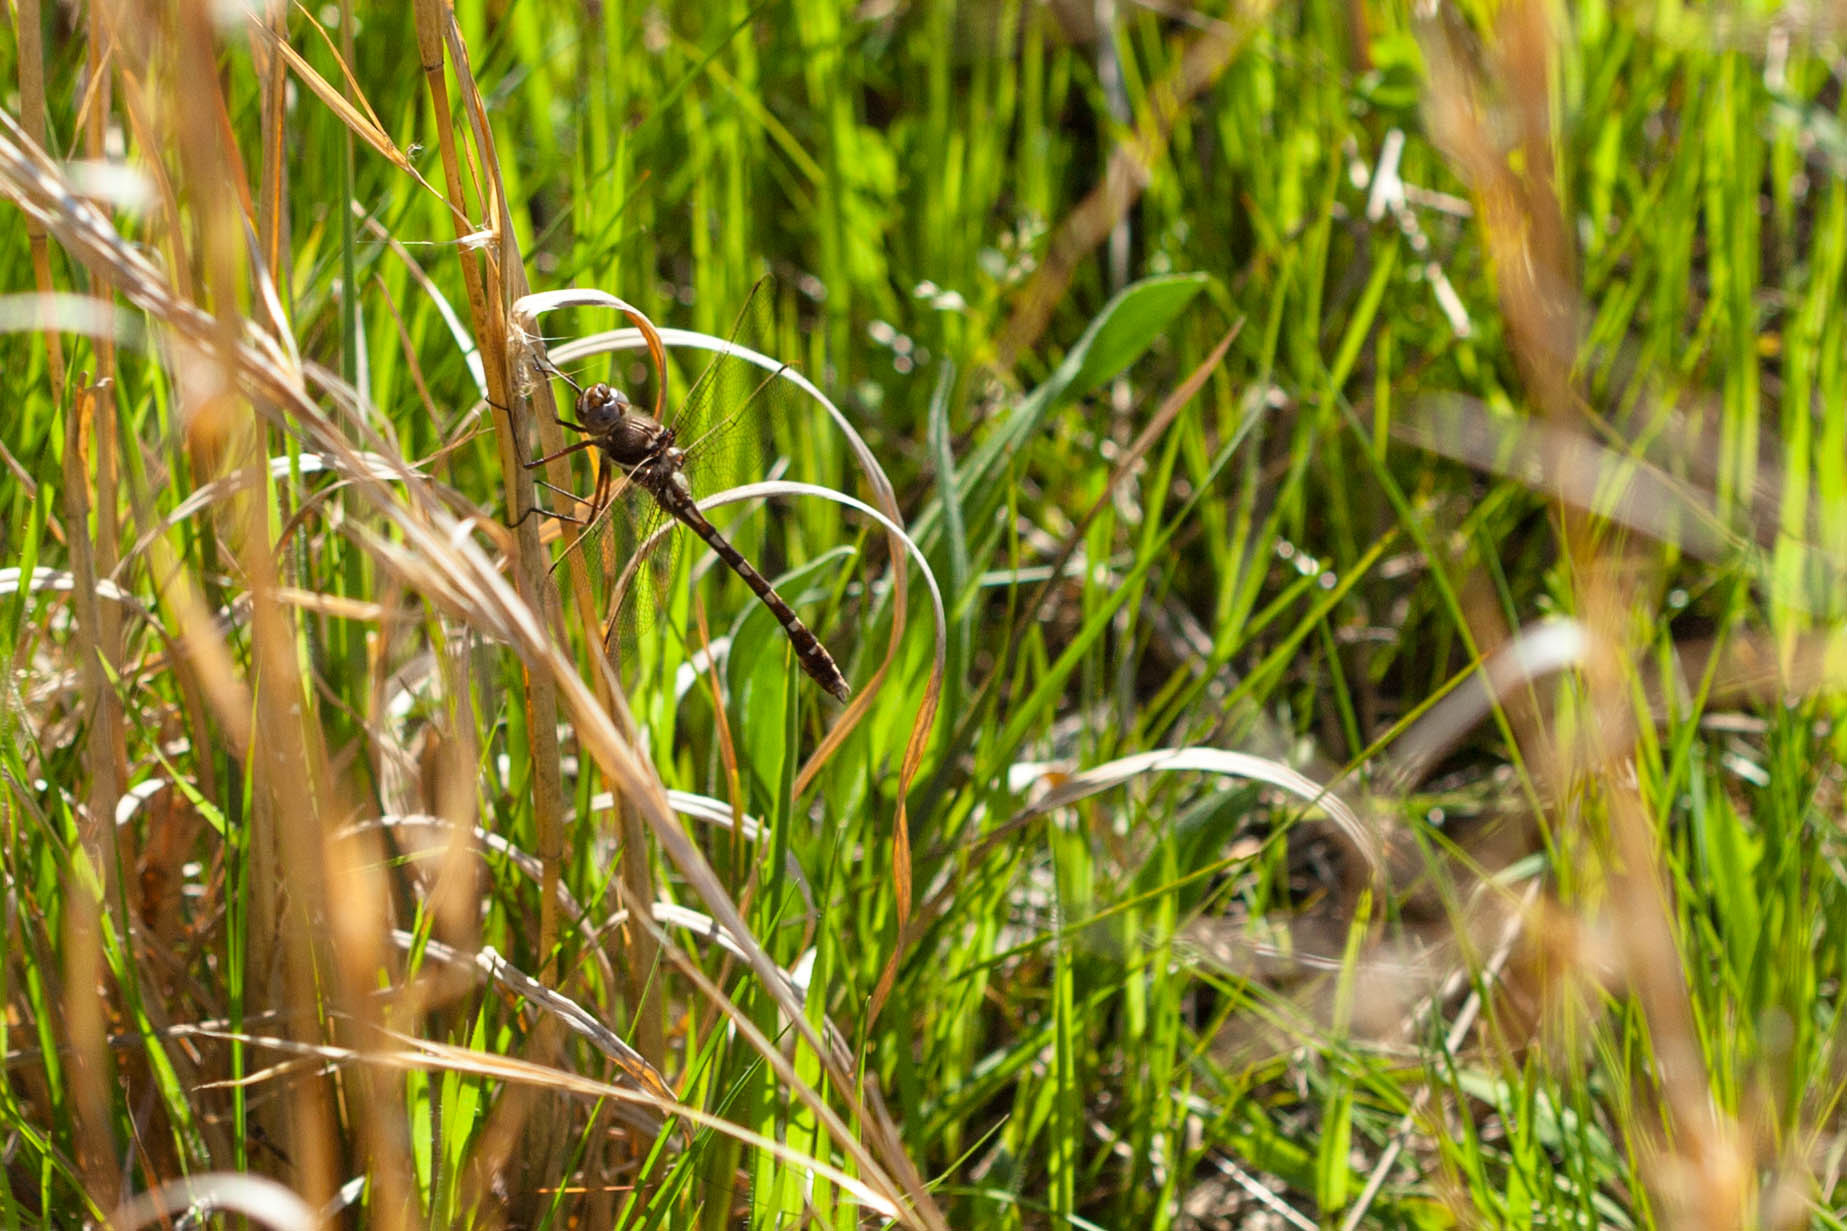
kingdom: Animalia
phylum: Arthropoda
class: Insecta
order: Odonata
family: Macromiidae
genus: Didymops
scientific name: Didymops transversa
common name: Stream cruiser
